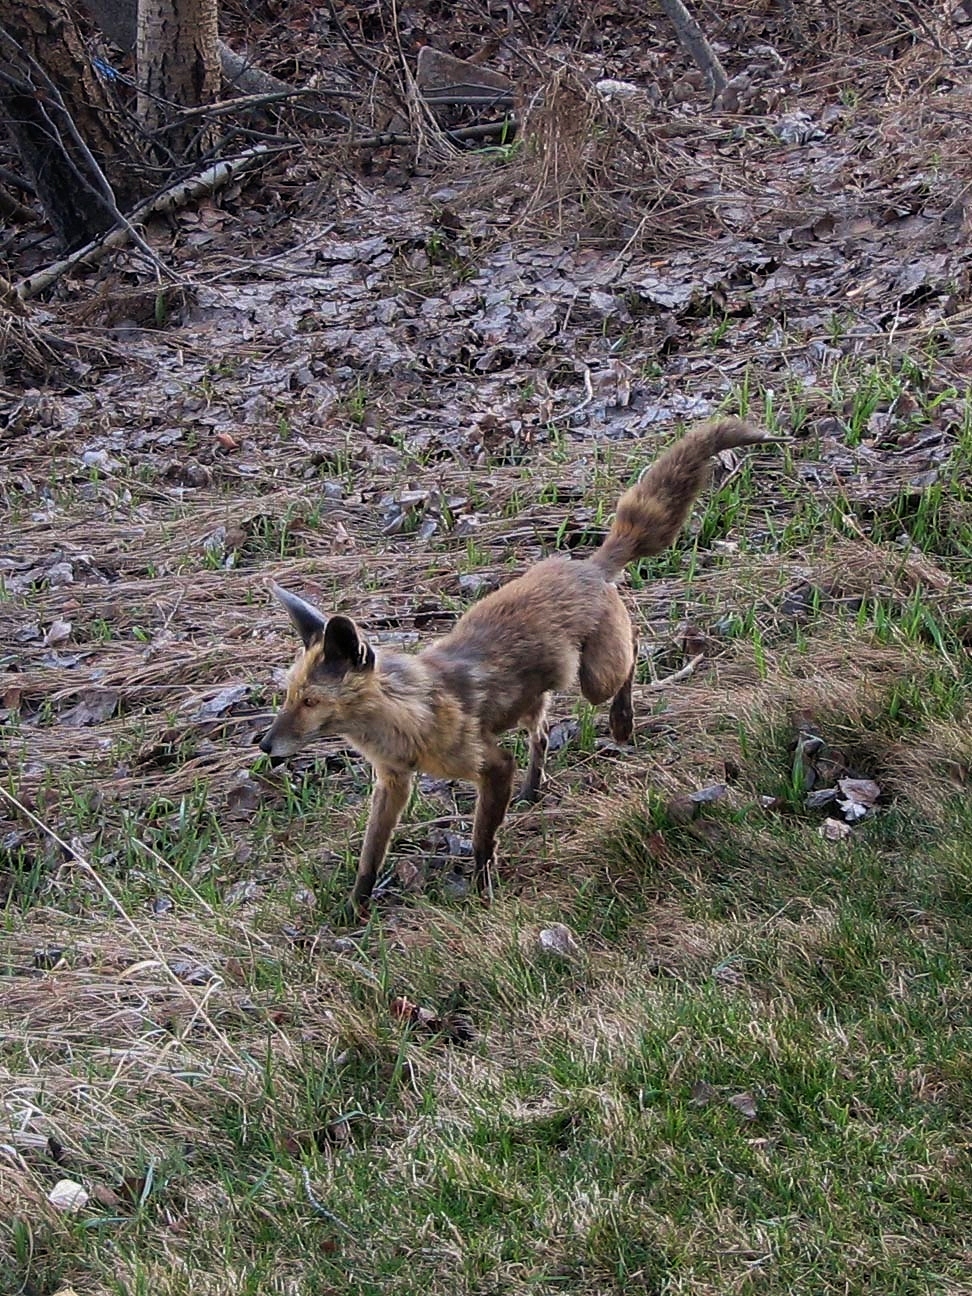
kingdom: Animalia
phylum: Chordata
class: Mammalia
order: Carnivora
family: Canidae
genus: Vulpes
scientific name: Vulpes vulpes
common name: Red fox
